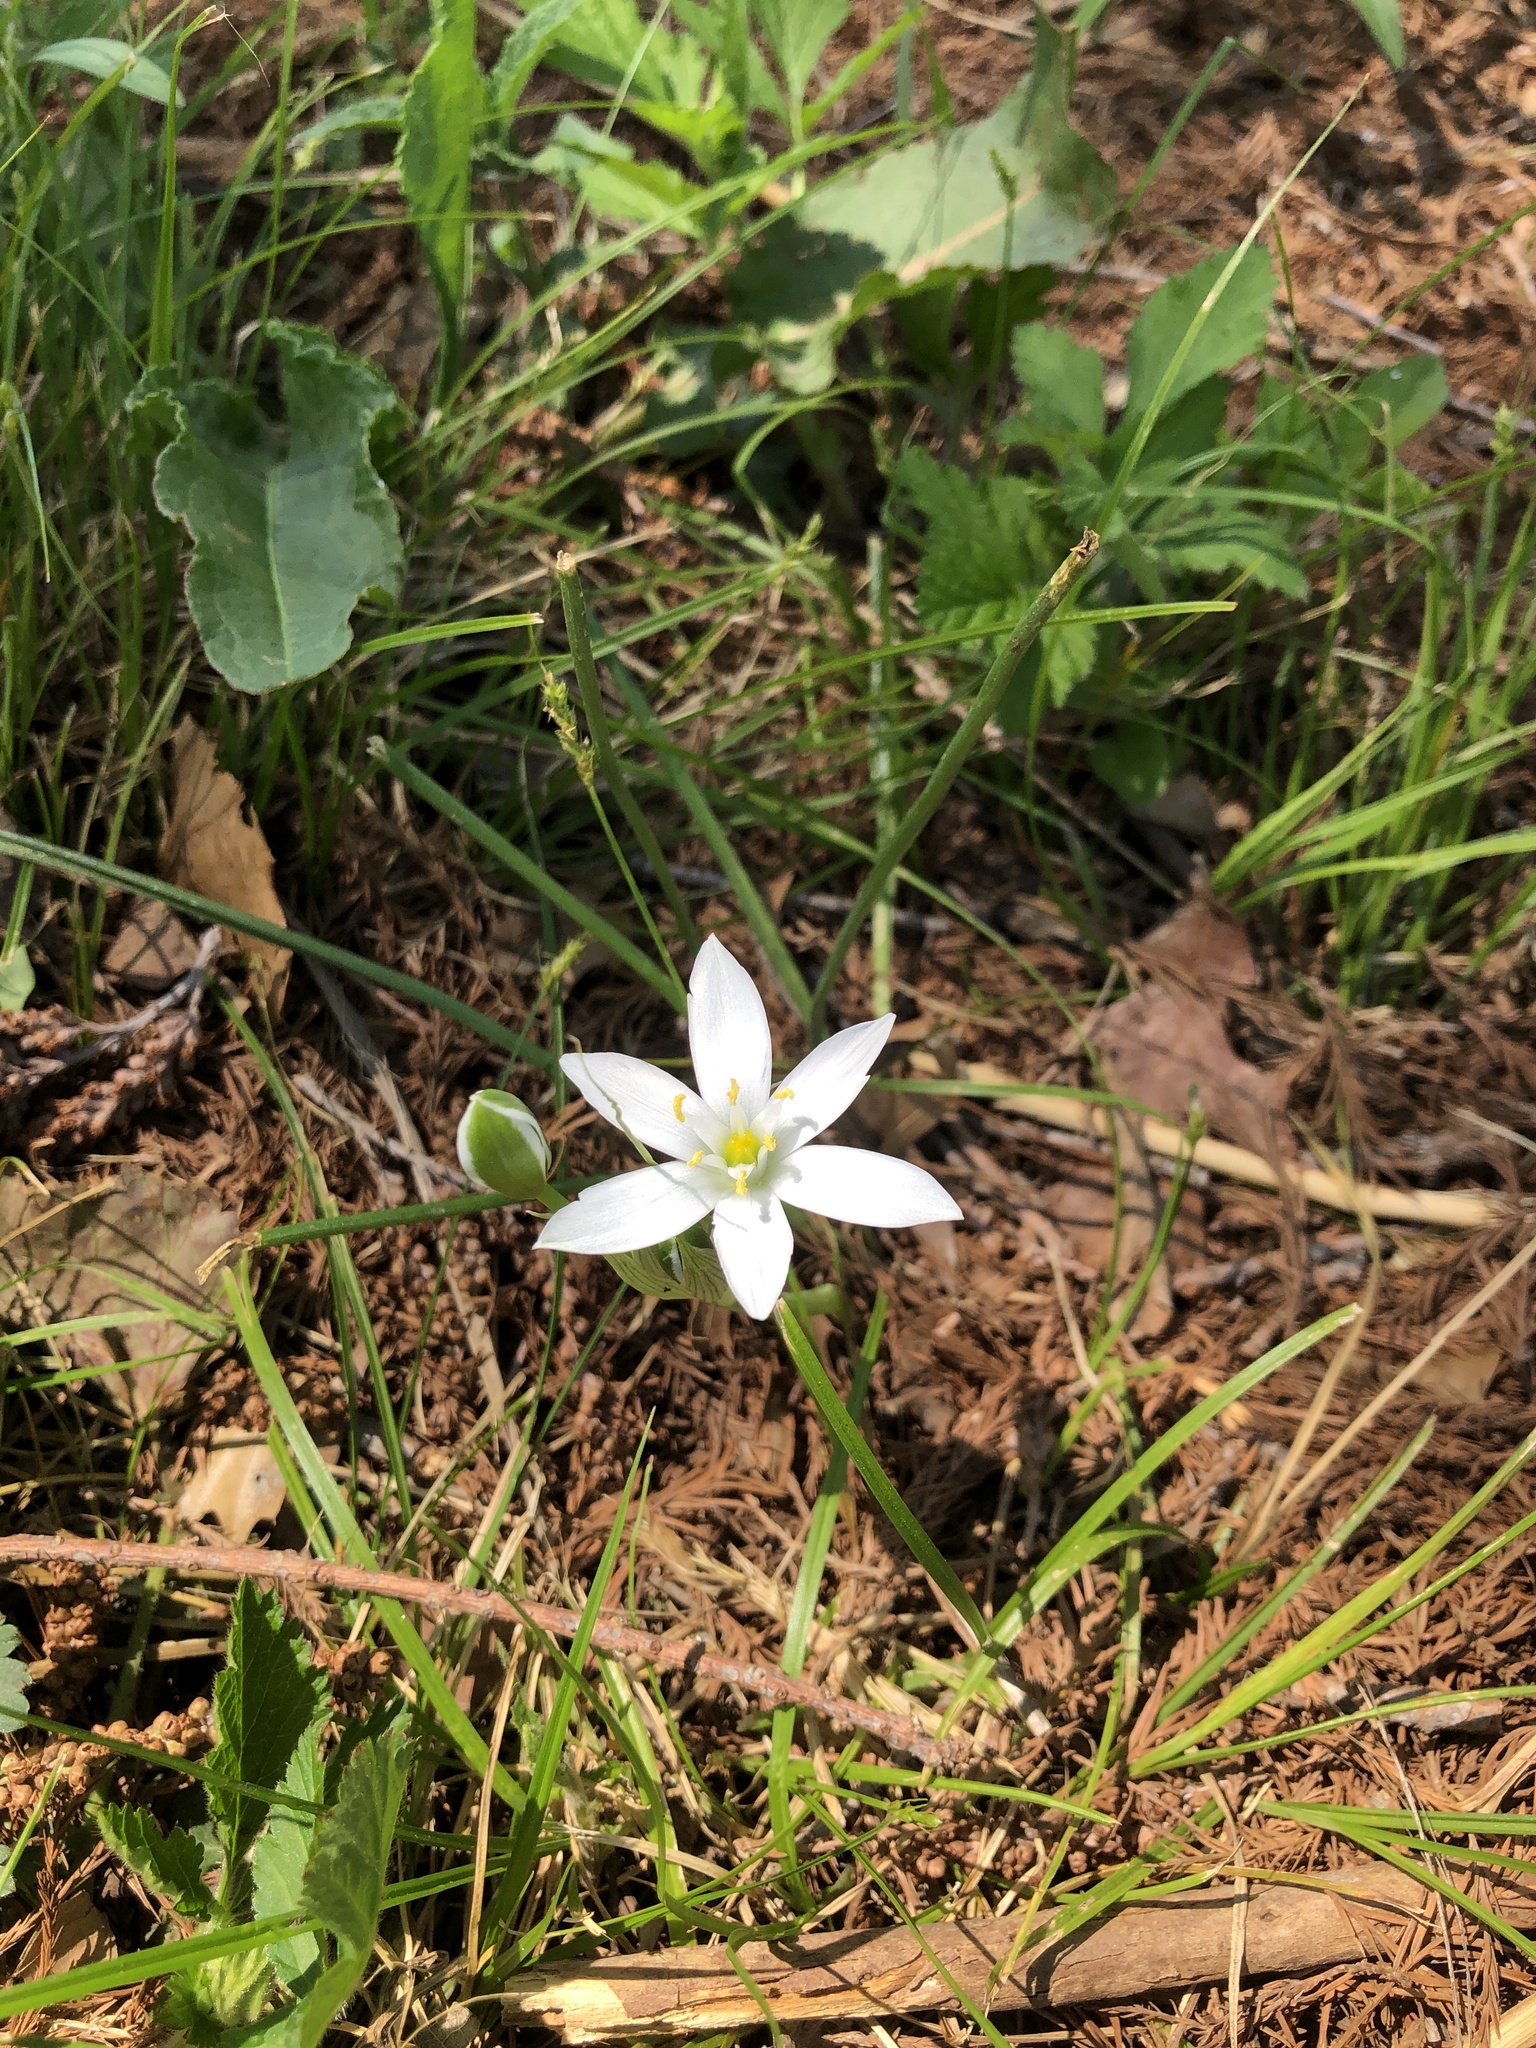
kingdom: Plantae
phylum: Tracheophyta
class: Liliopsida
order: Asparagales
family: Asparagaceae
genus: Ornithogalum
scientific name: Ornithogalum umbellatum
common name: Garden star-of-bethlehem
